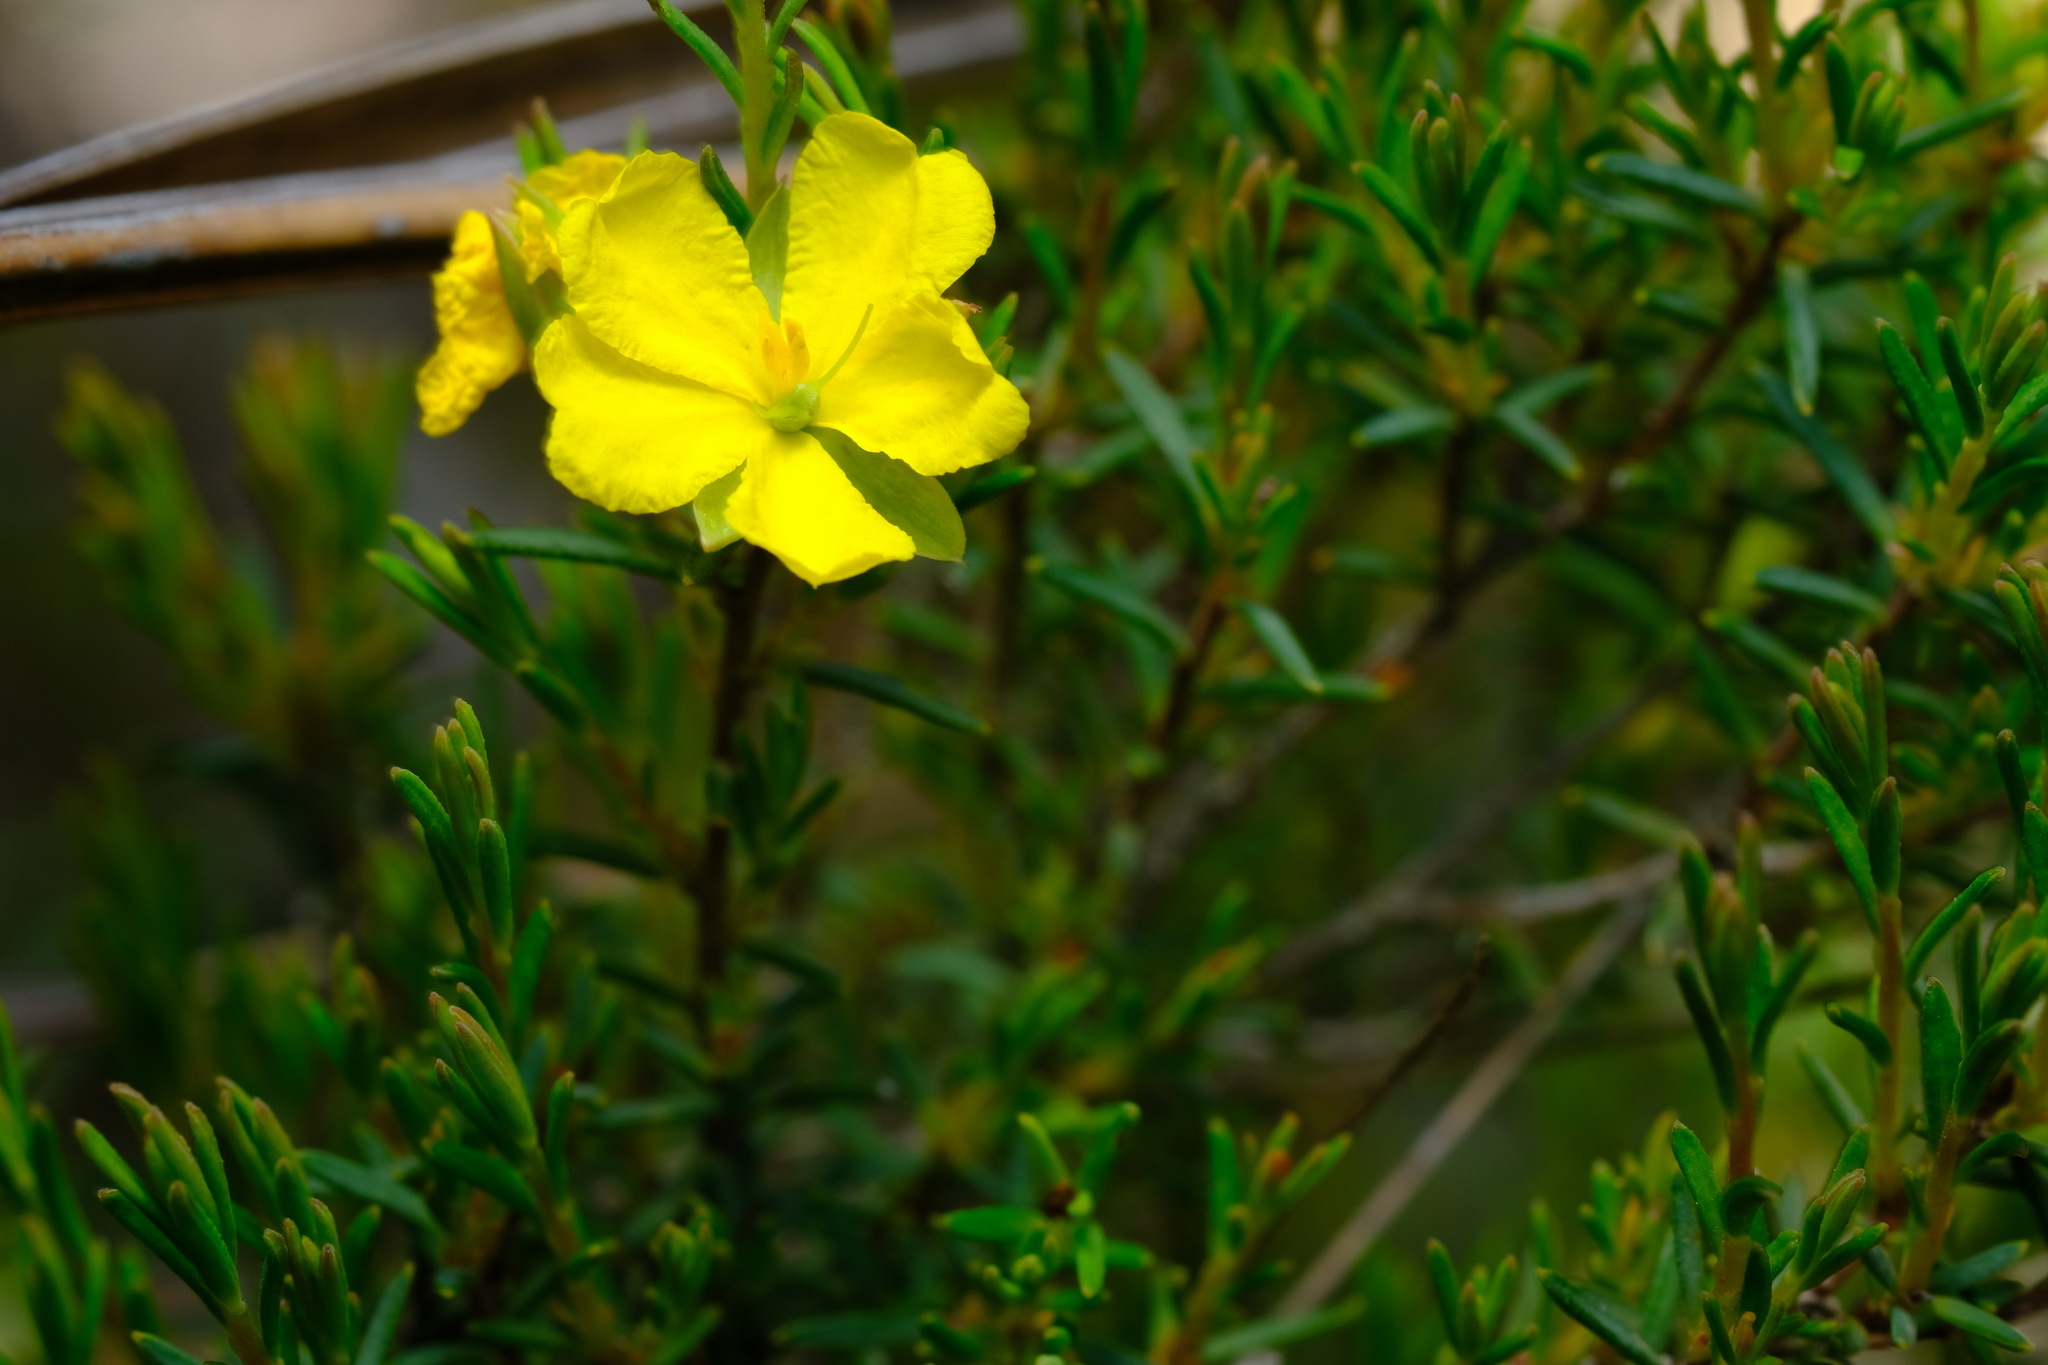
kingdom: Plantae
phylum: Tracheophyta
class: Magnoliopsida
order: Dilleniales
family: Dilleniaceae
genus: Hibbertia
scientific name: Hibbertia riparia
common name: Erect guinea-flower
